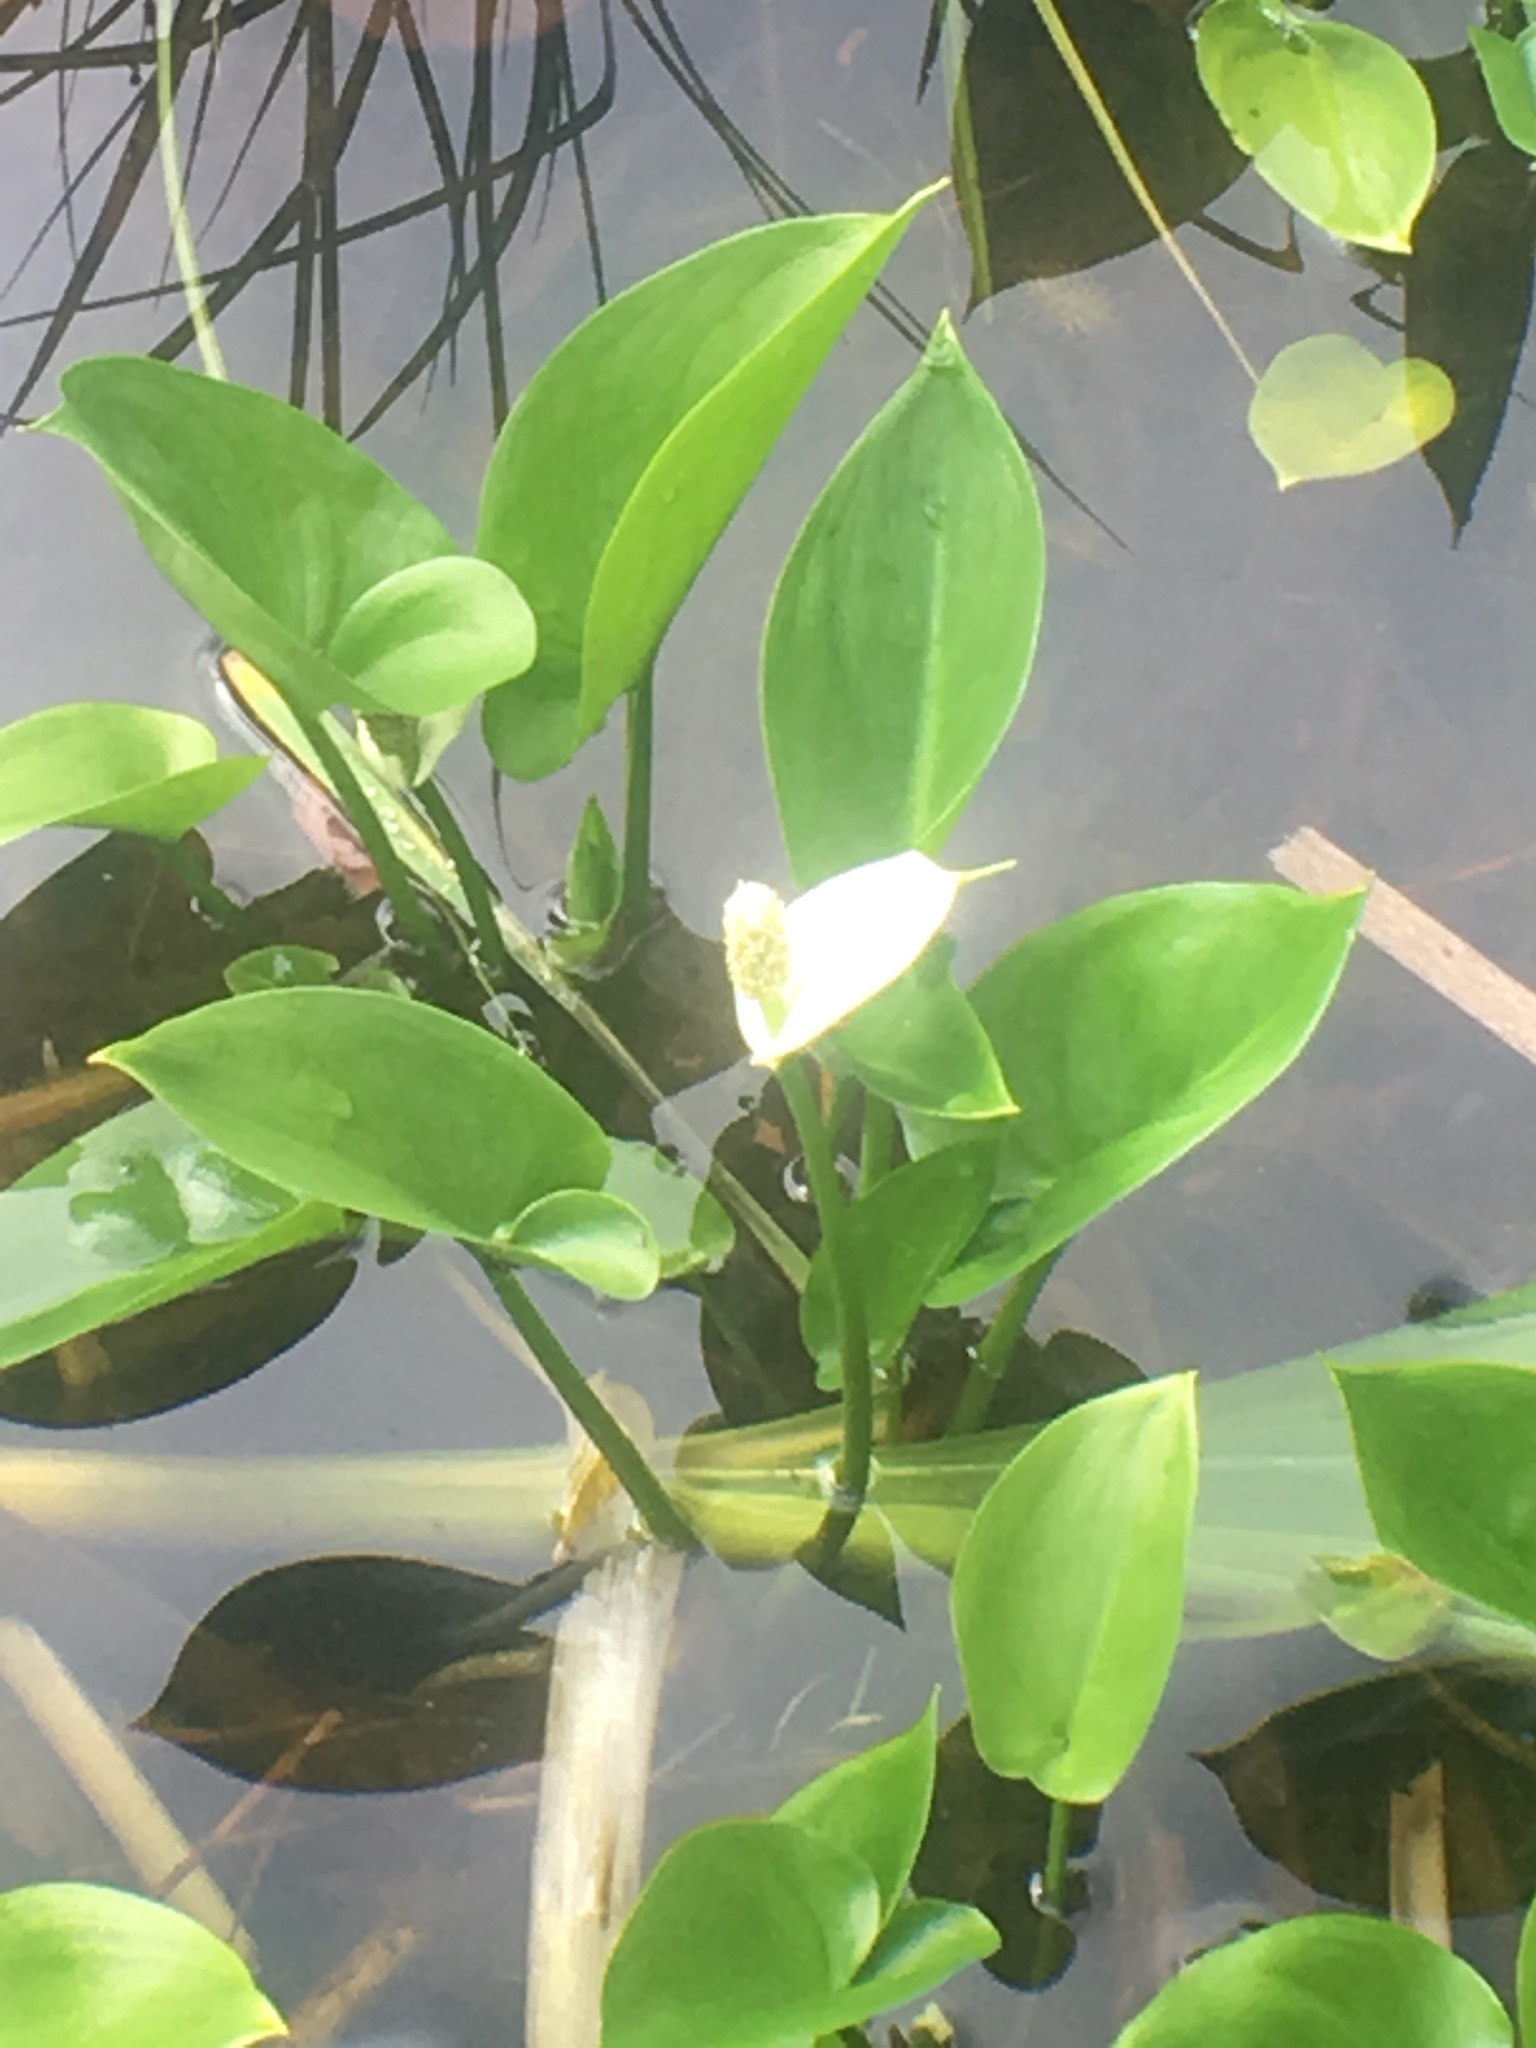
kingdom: Plantae
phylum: Tracheophyta
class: Liliopsida
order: Alismatales
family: Araceae
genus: Calla
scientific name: Calla palustris
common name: Bog arum
